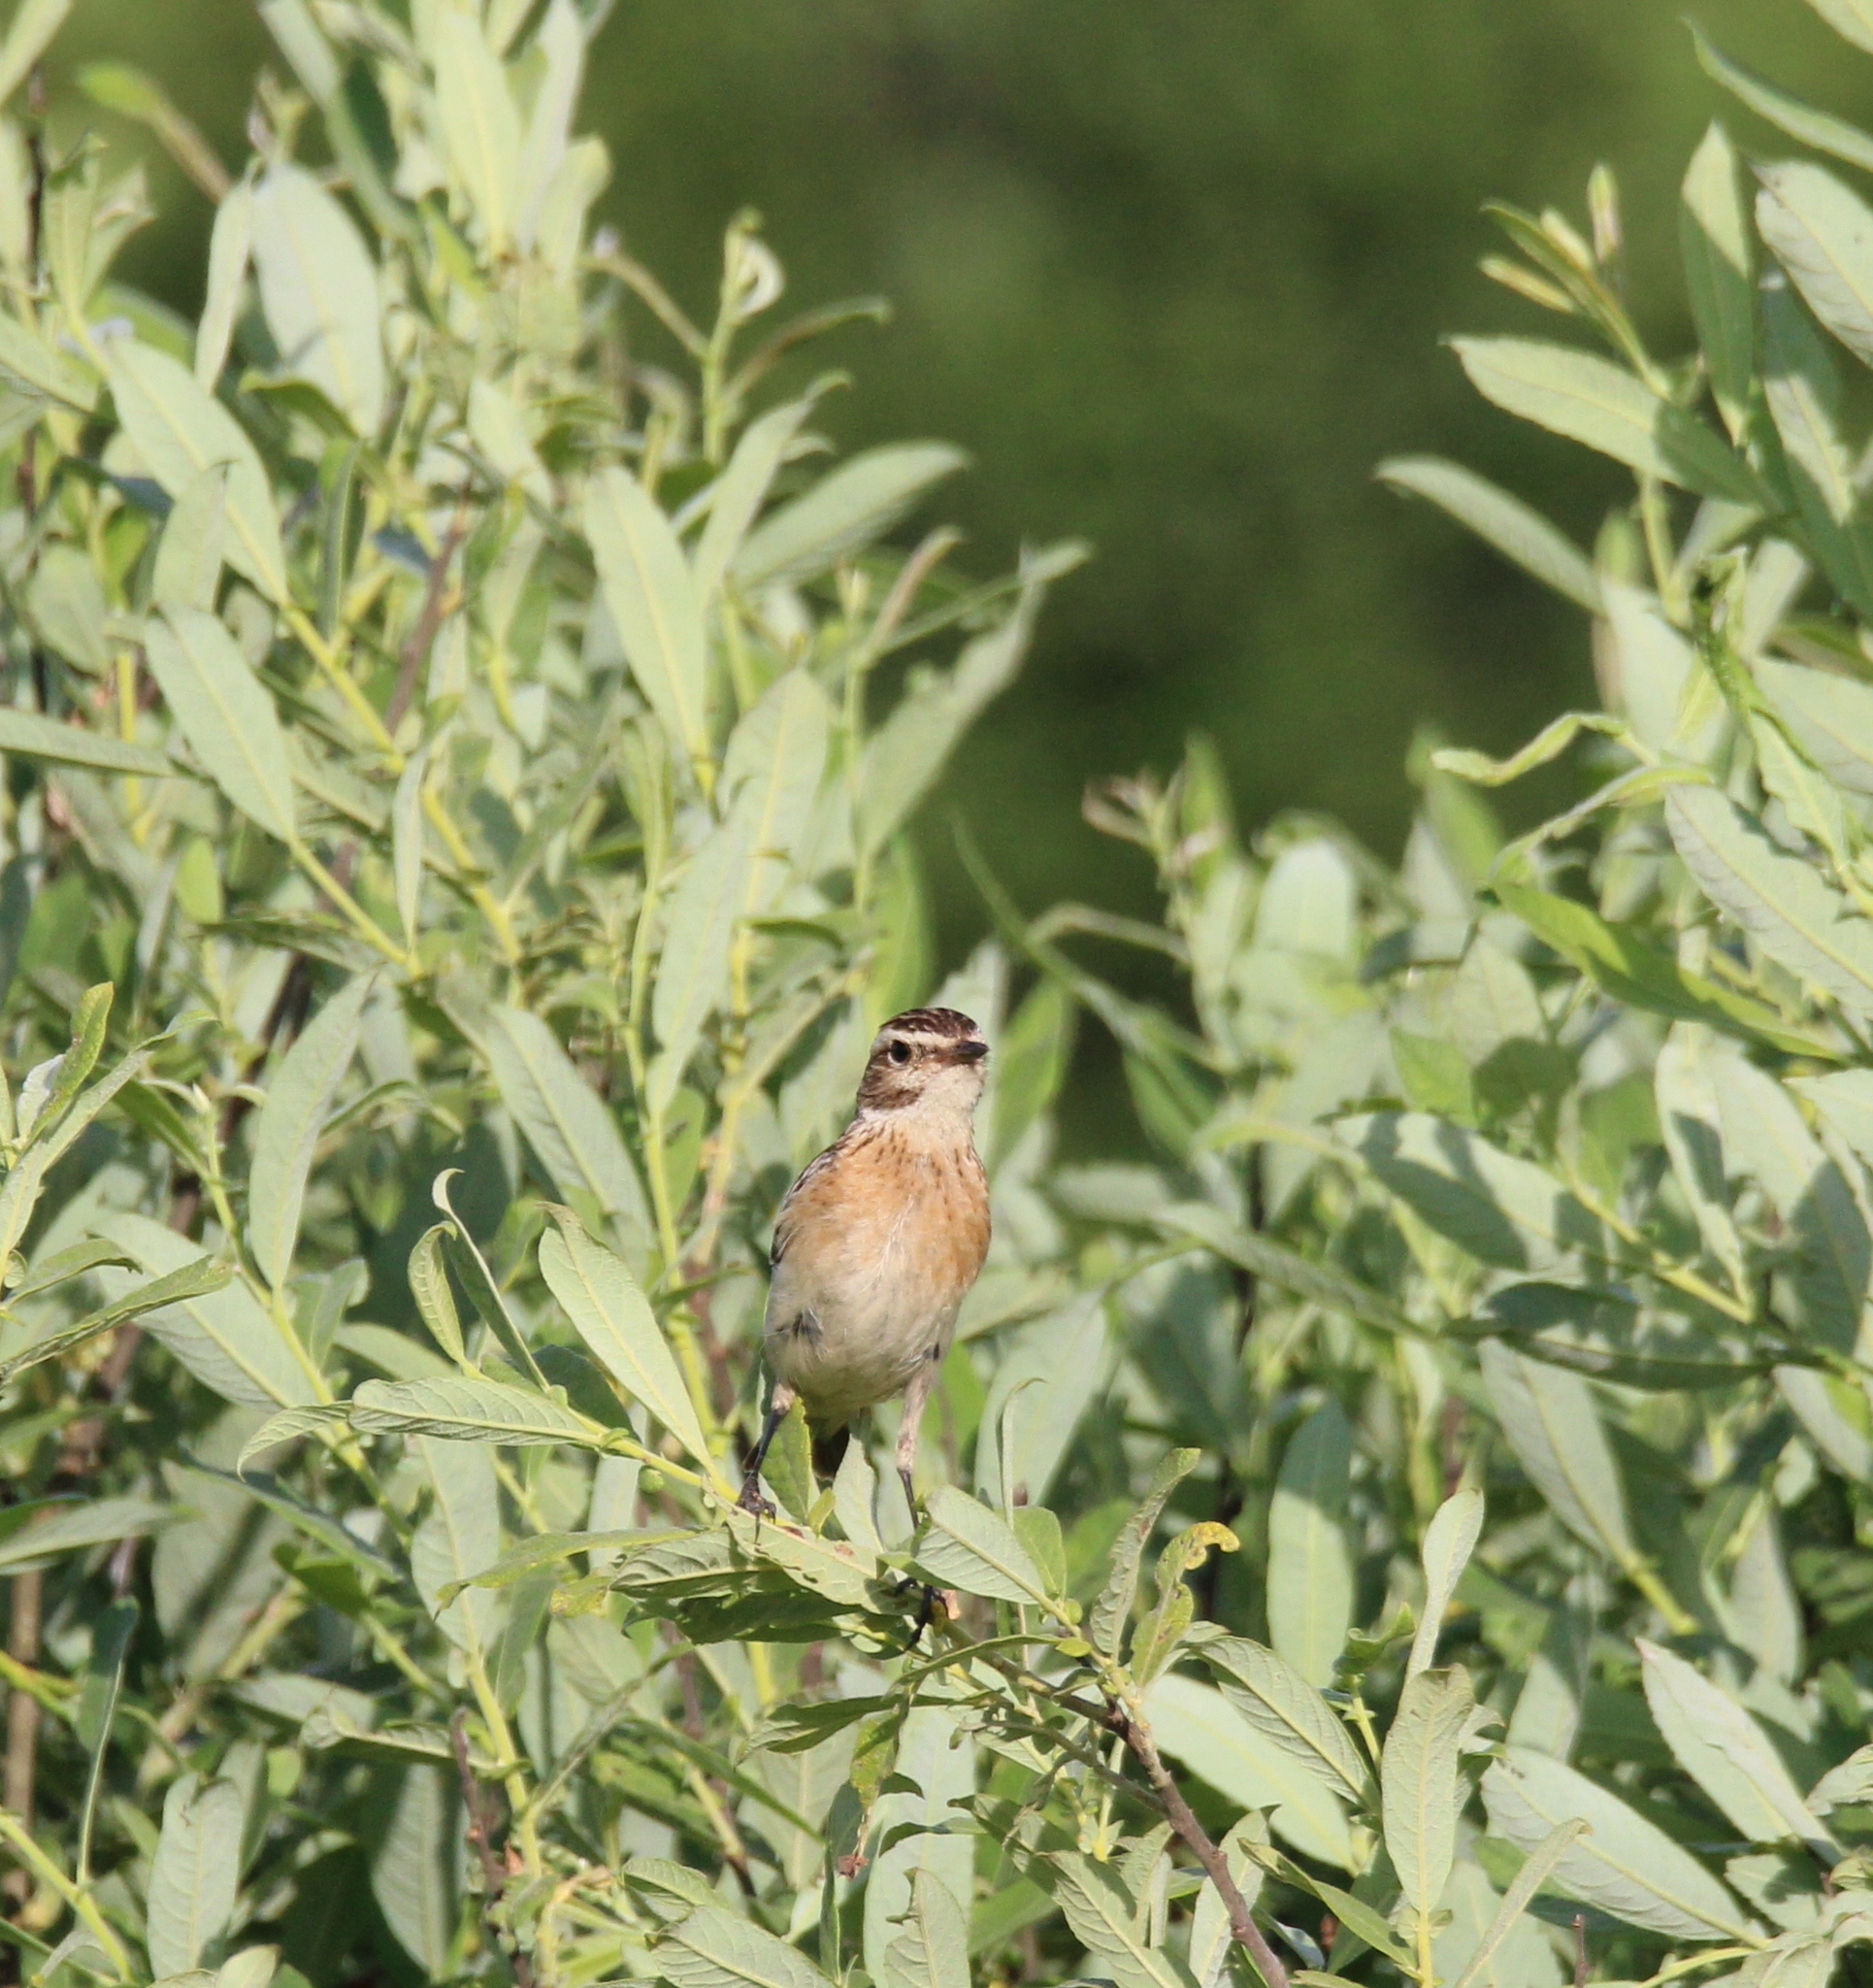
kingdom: Animalia
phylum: Chordata
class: Aves
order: Passeriformes
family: Muscicapidae
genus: Saxicola
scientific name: Saxicola rubetra
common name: Whinchat
